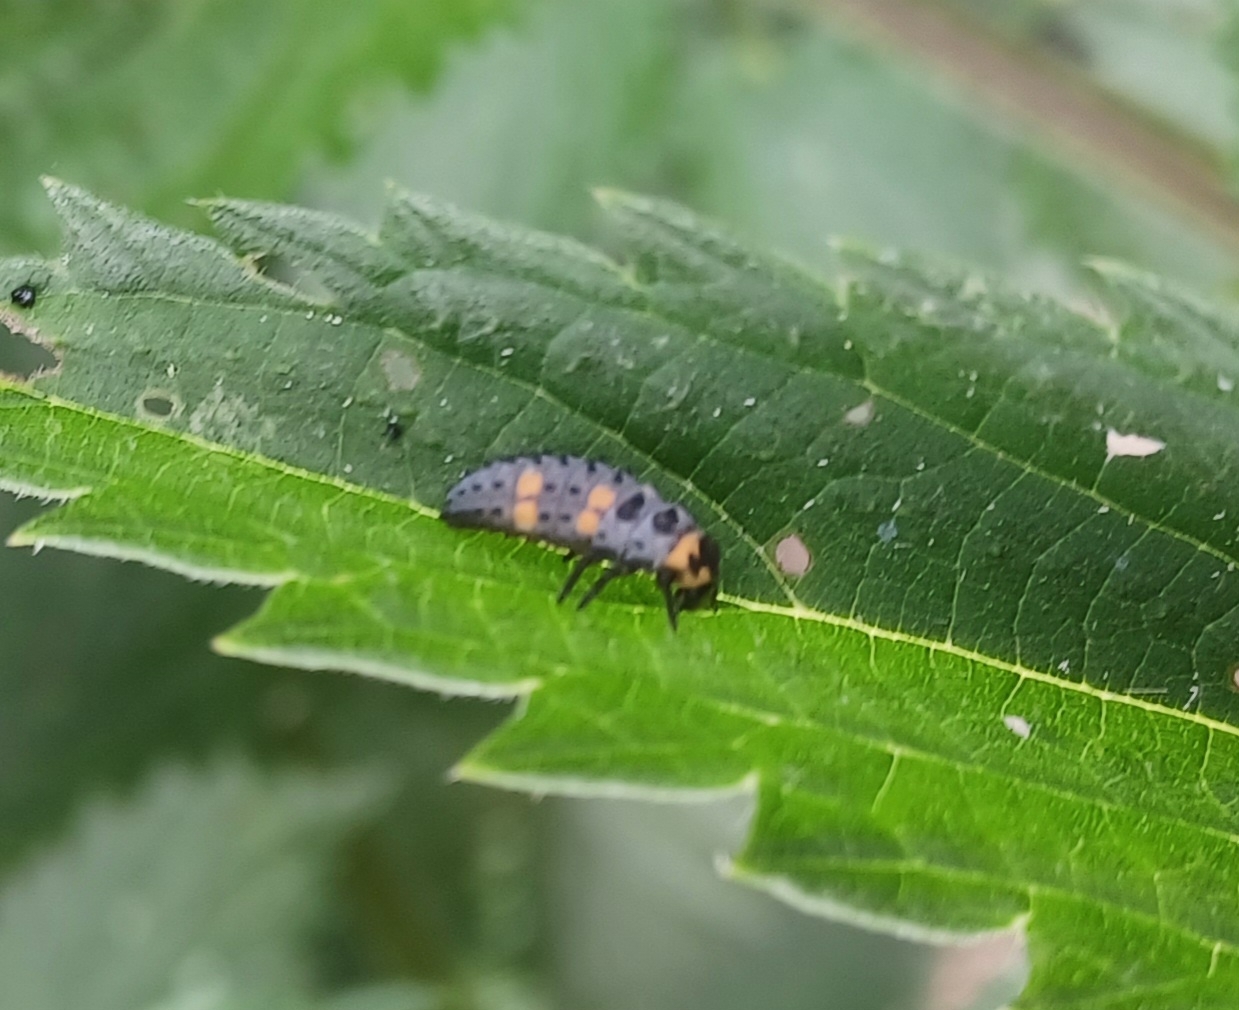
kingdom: Animalia
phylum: Arthropoda
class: Insecta
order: Coleoptera
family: Coccinellidae
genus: Coccinella
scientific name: Coccinella septempunctata
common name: Sevenspotted lady beetle
